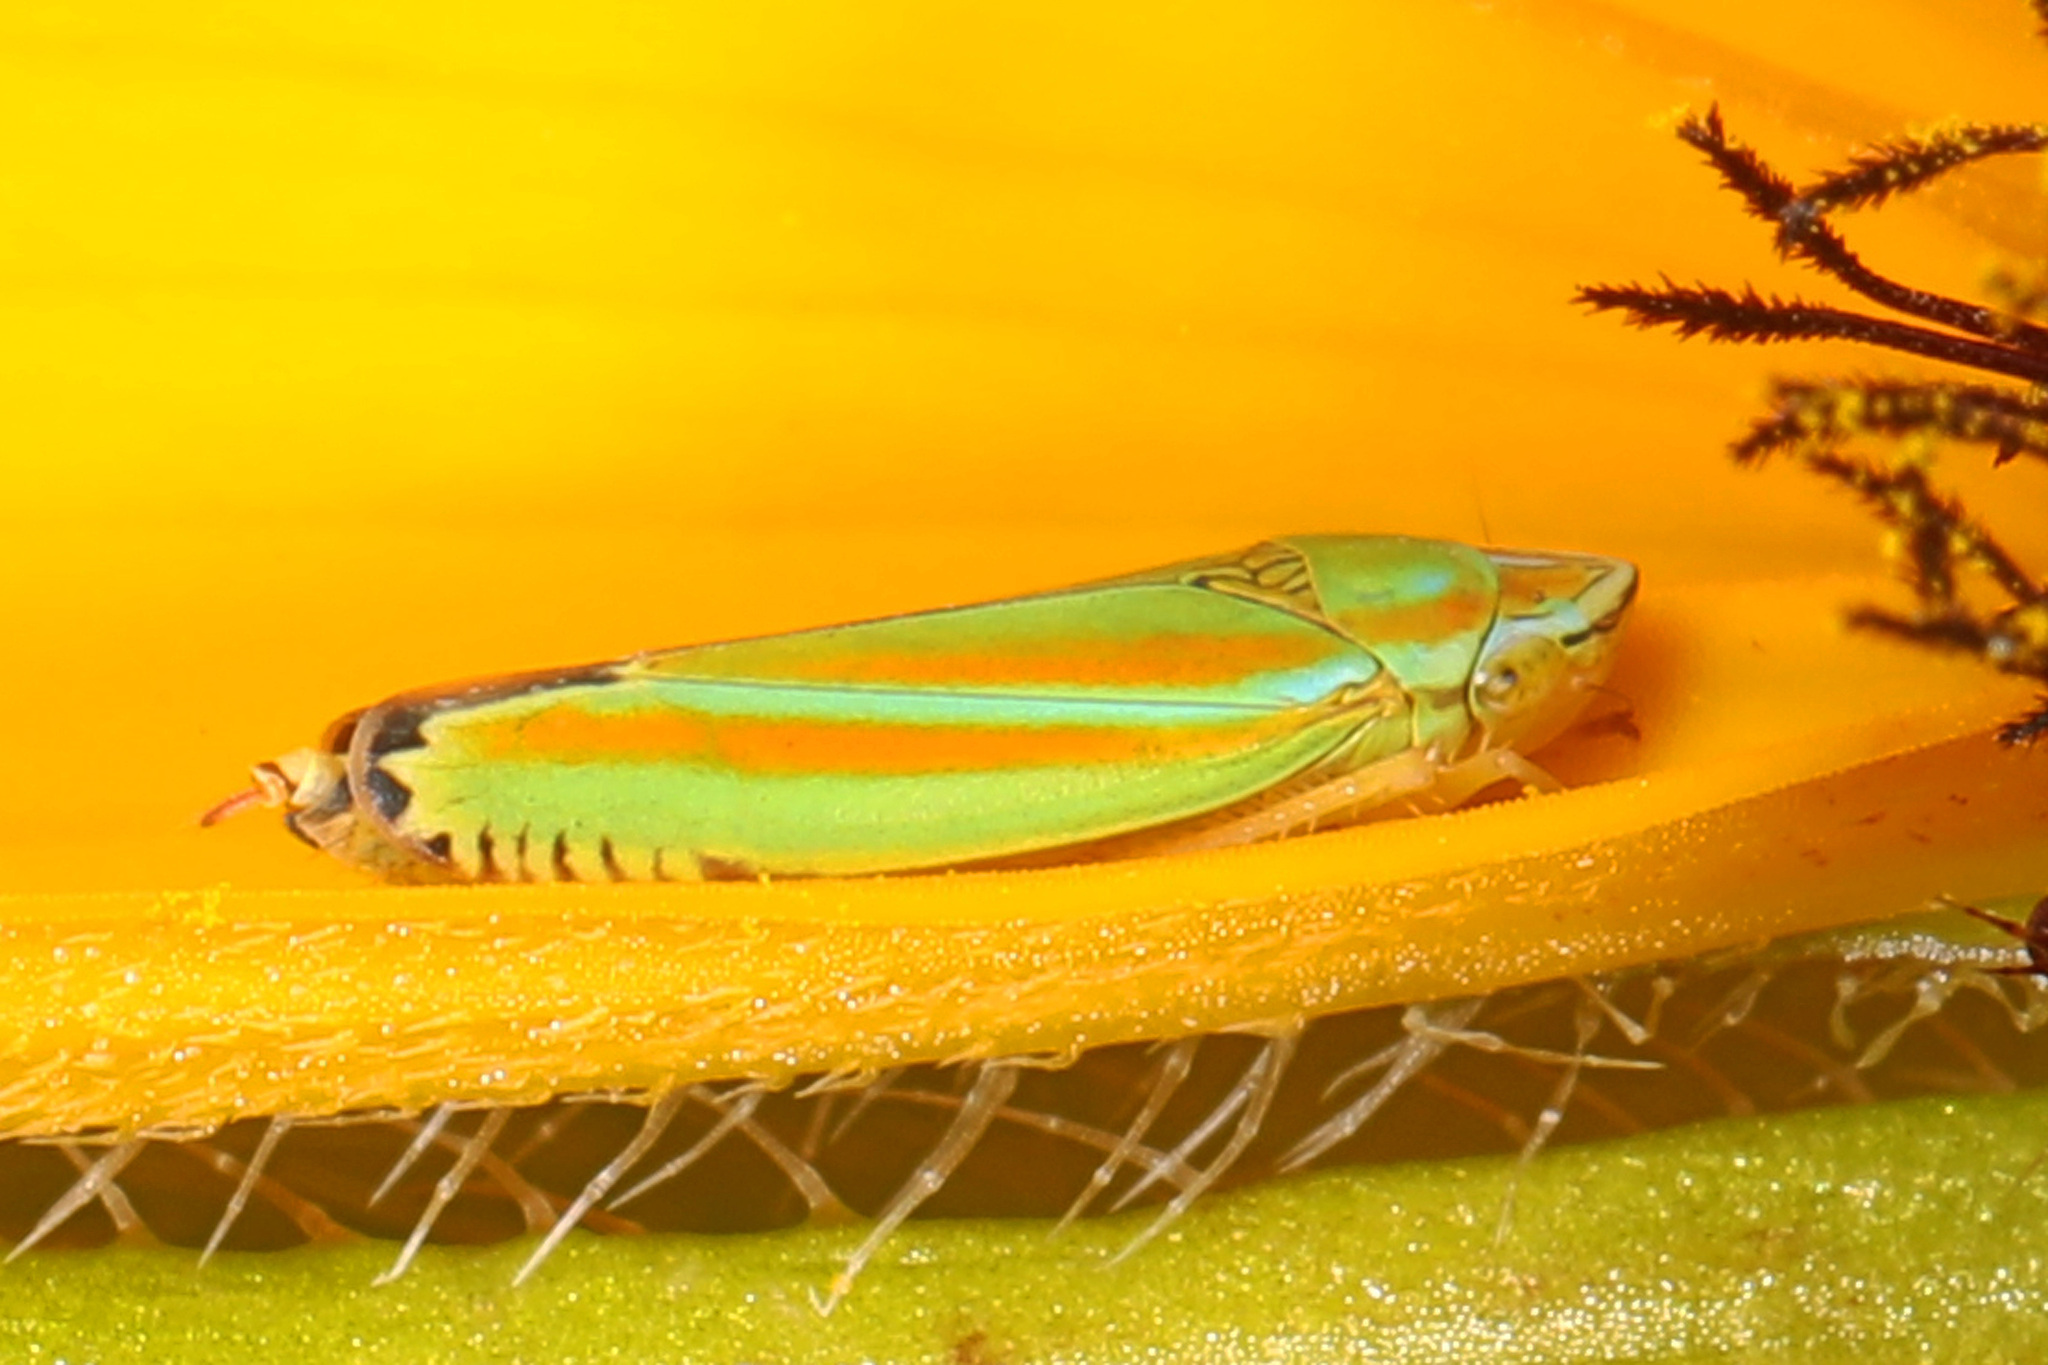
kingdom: Animalia
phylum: Arthropoda
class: Insecta
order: Hemiptera
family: Cicadellidae
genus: Graphocephala
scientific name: Graphocephala versuta
